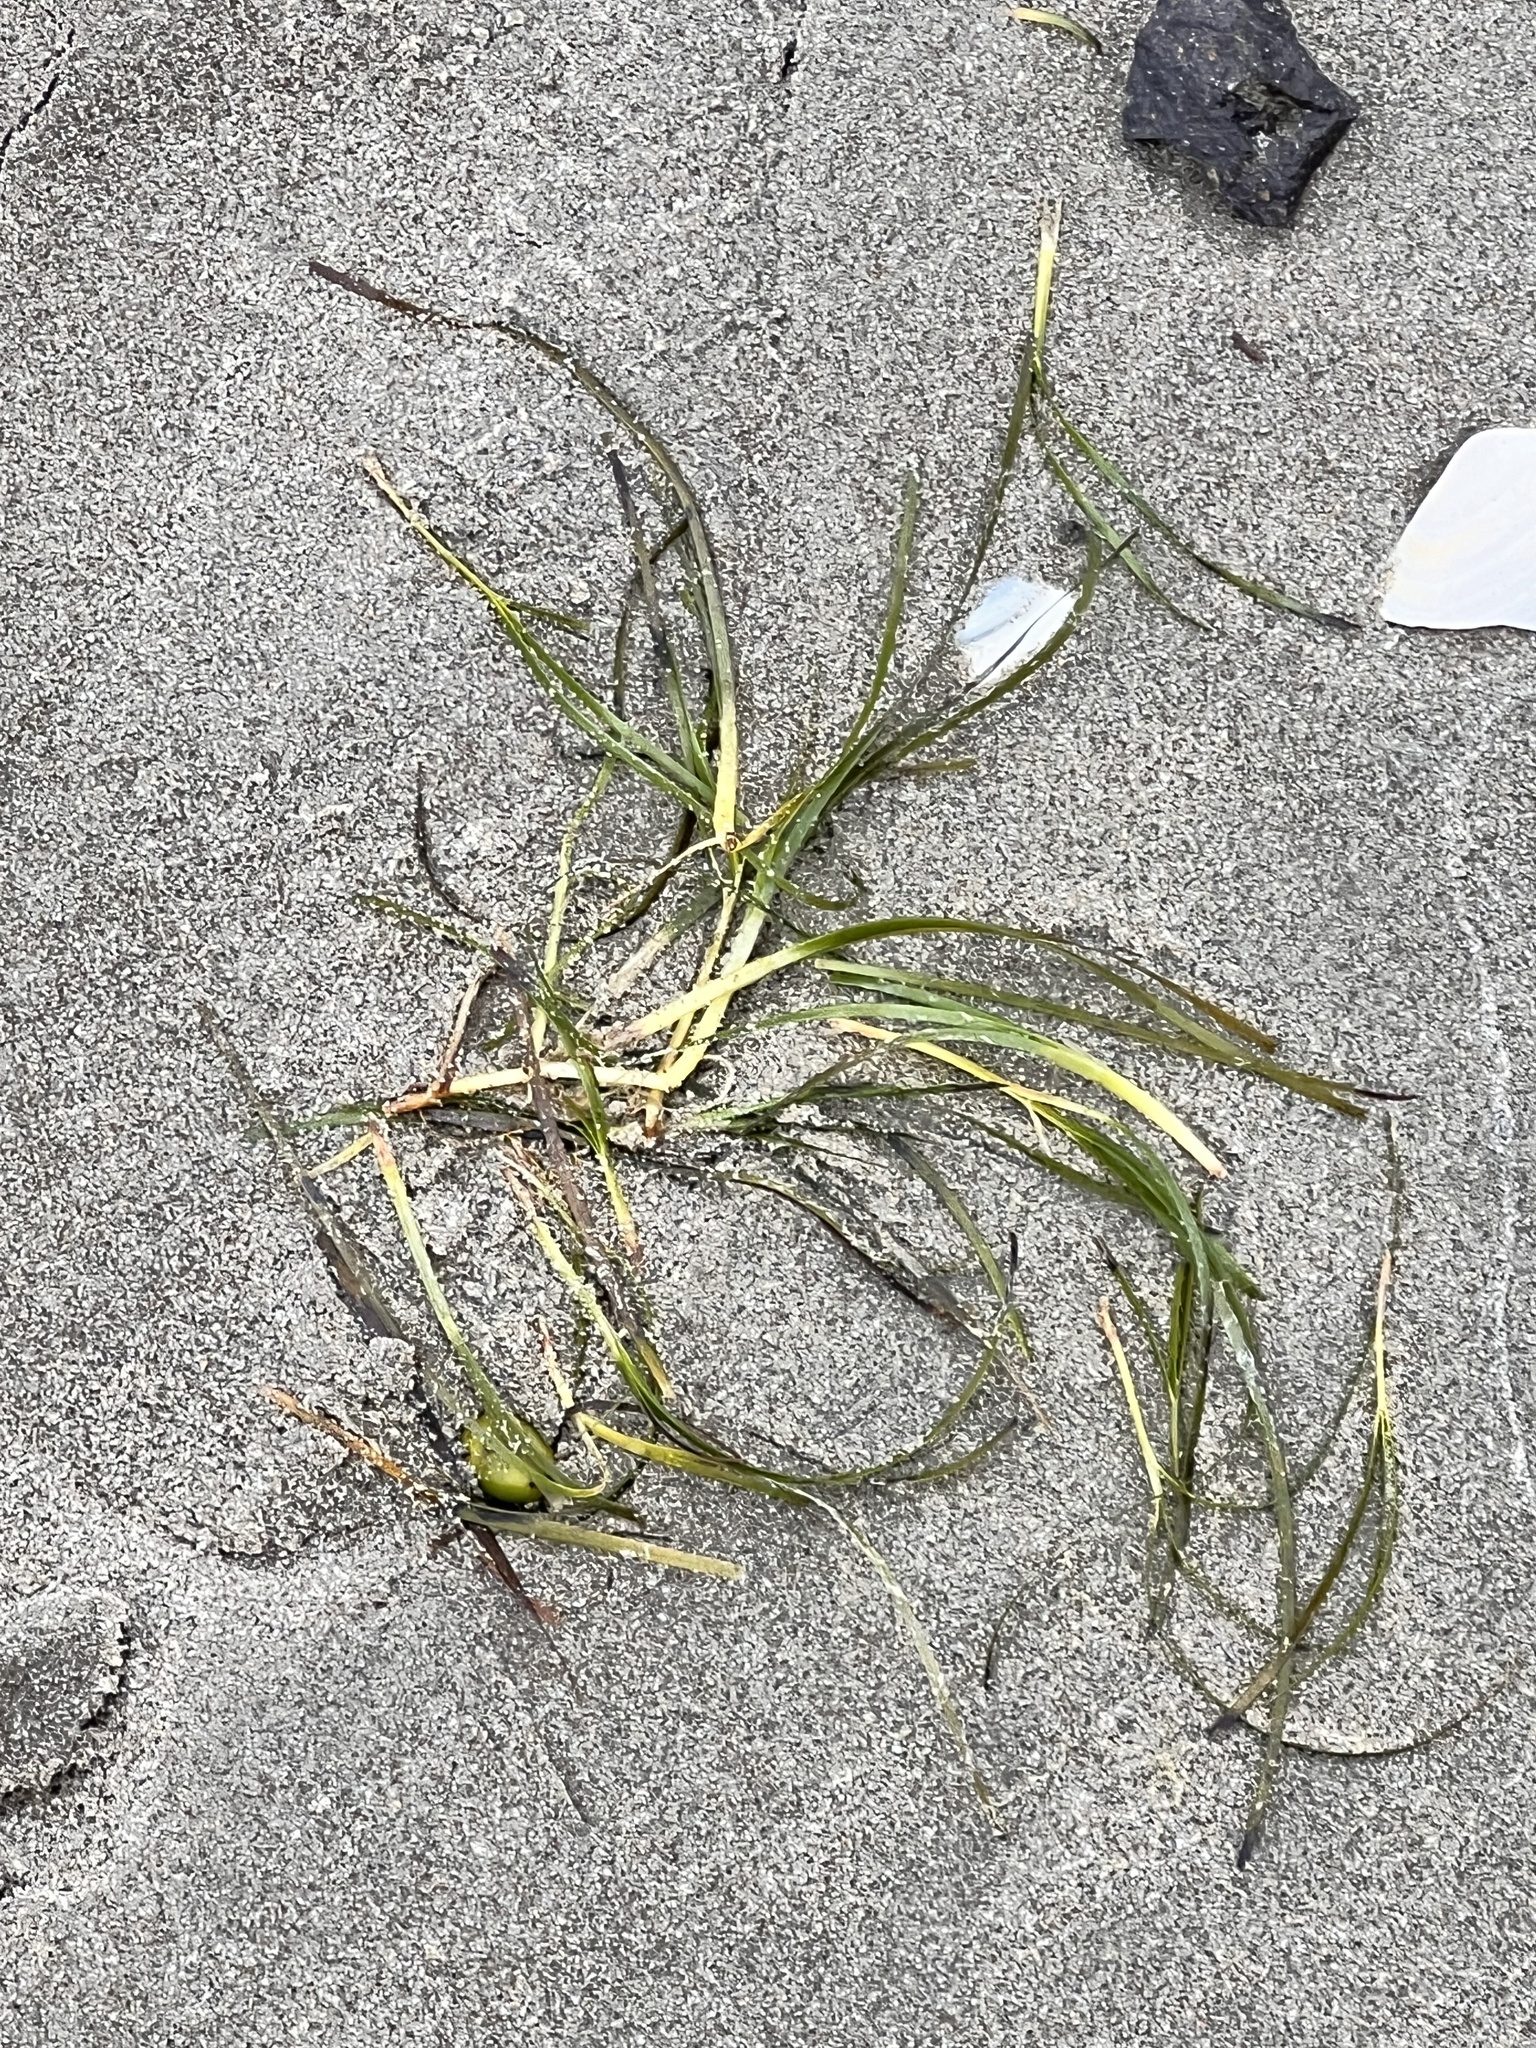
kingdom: Plantae
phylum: Tracheophyta
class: Liliopsida
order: Alismatales
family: Zosteraceae
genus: Zostera
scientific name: Zostera muelleri
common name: Species code: zc
